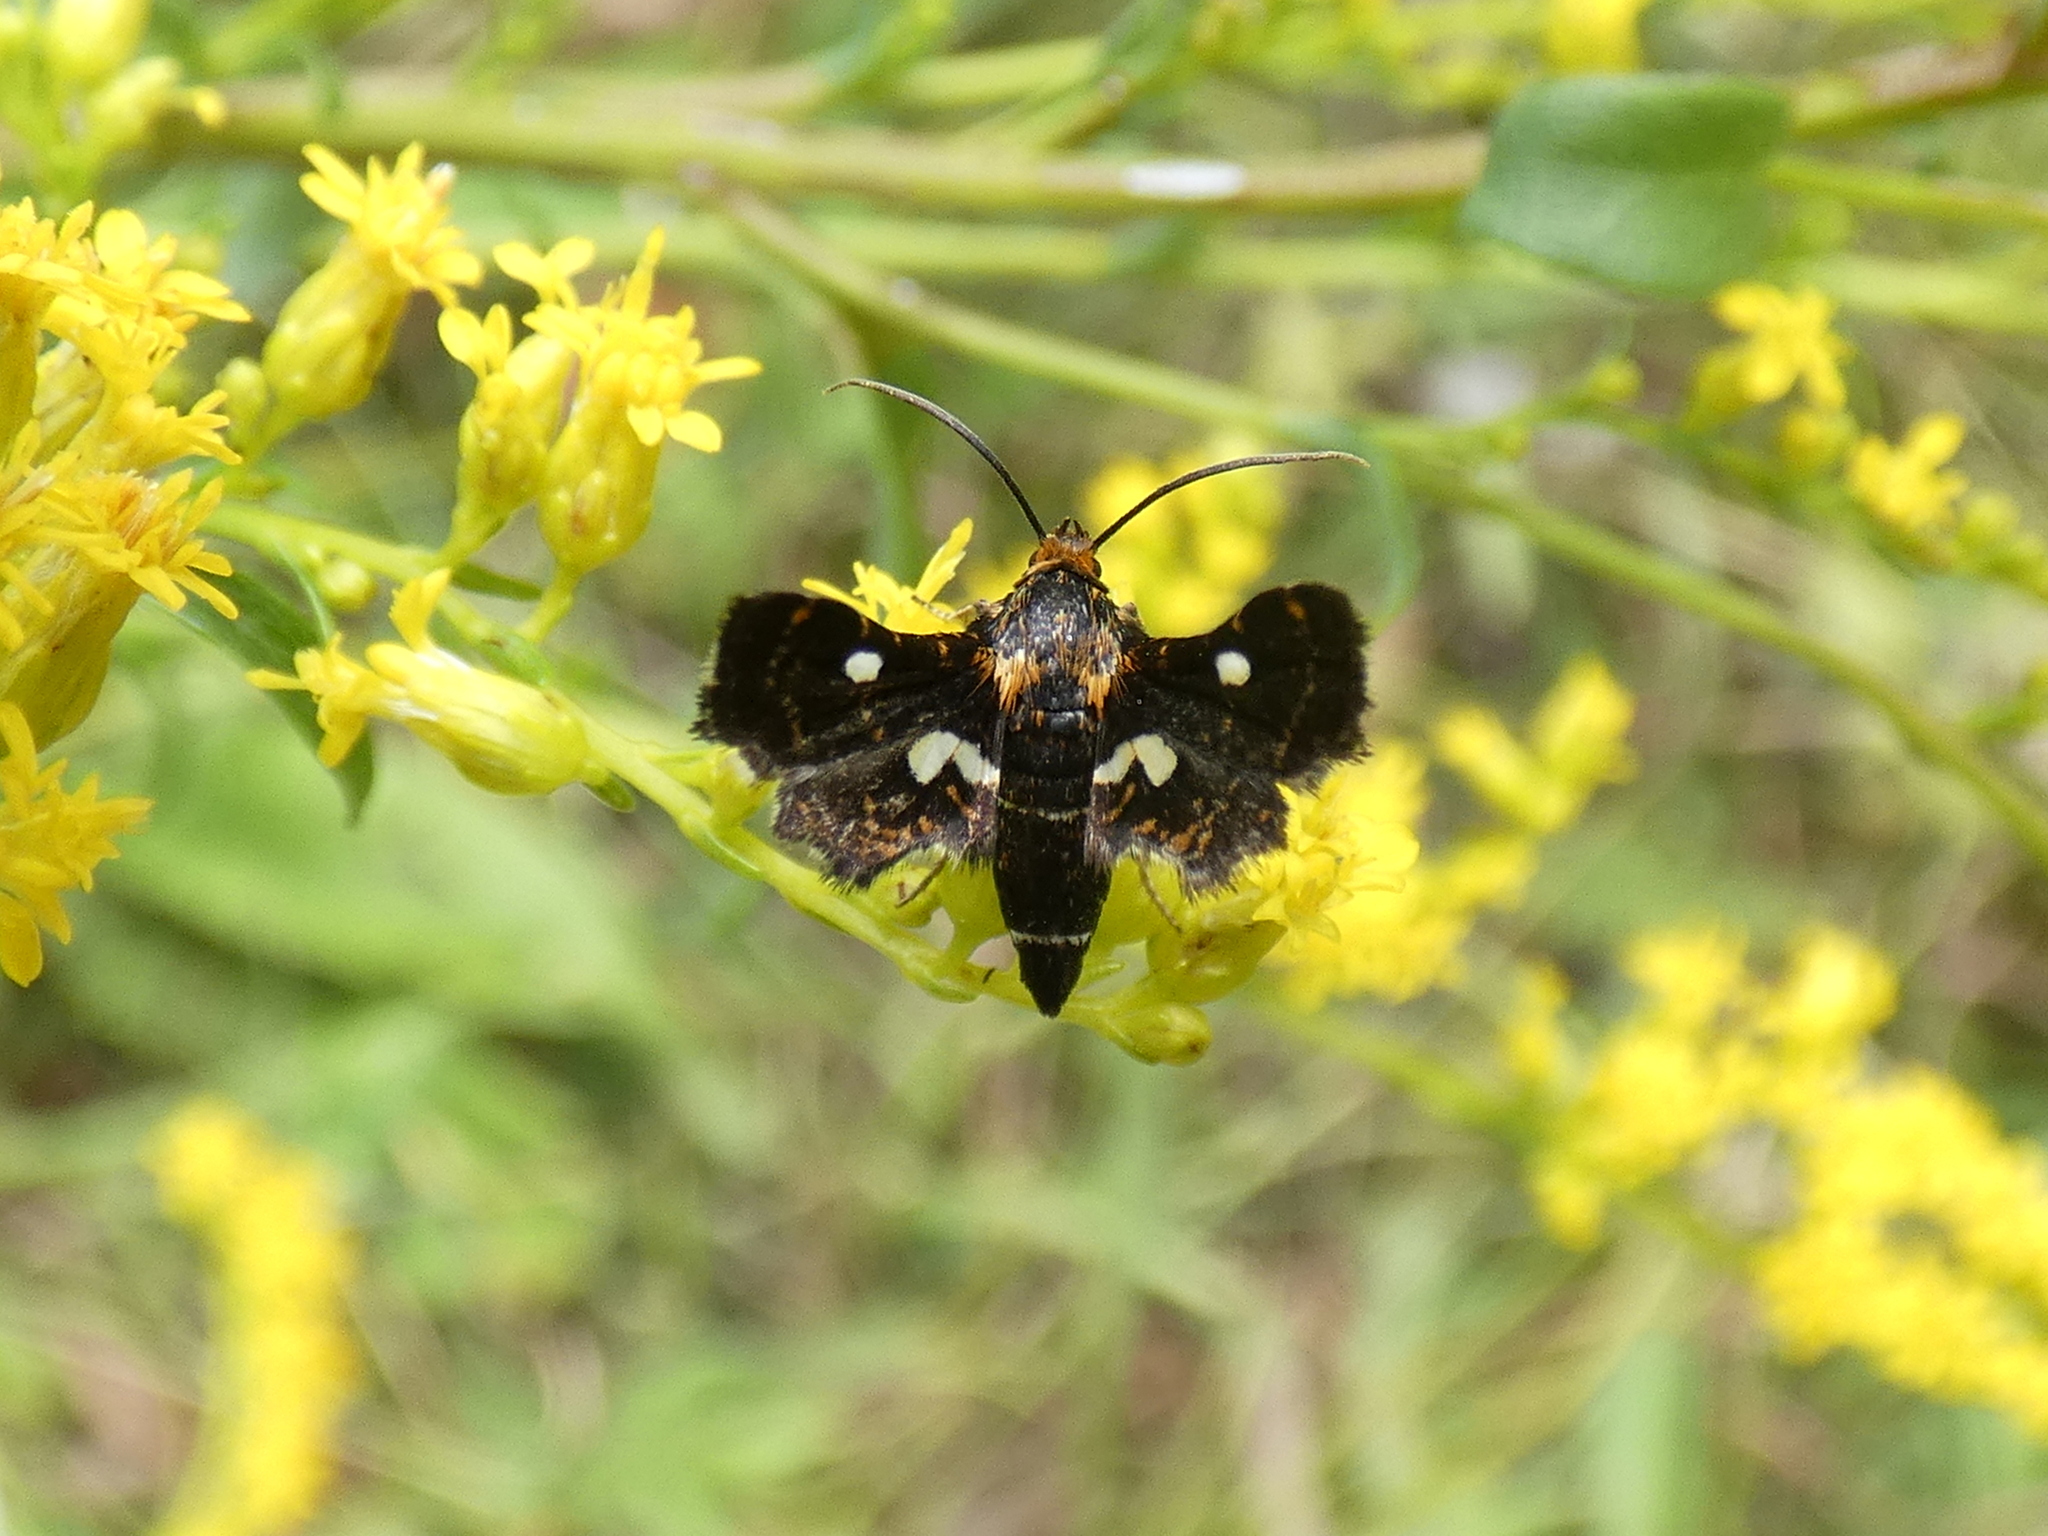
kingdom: Animalia
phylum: Arthropoda
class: Insecta
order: Lepidoptera
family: Thyrididae
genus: Thyris
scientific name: Thyris maculata
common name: Spotted thyris moth
